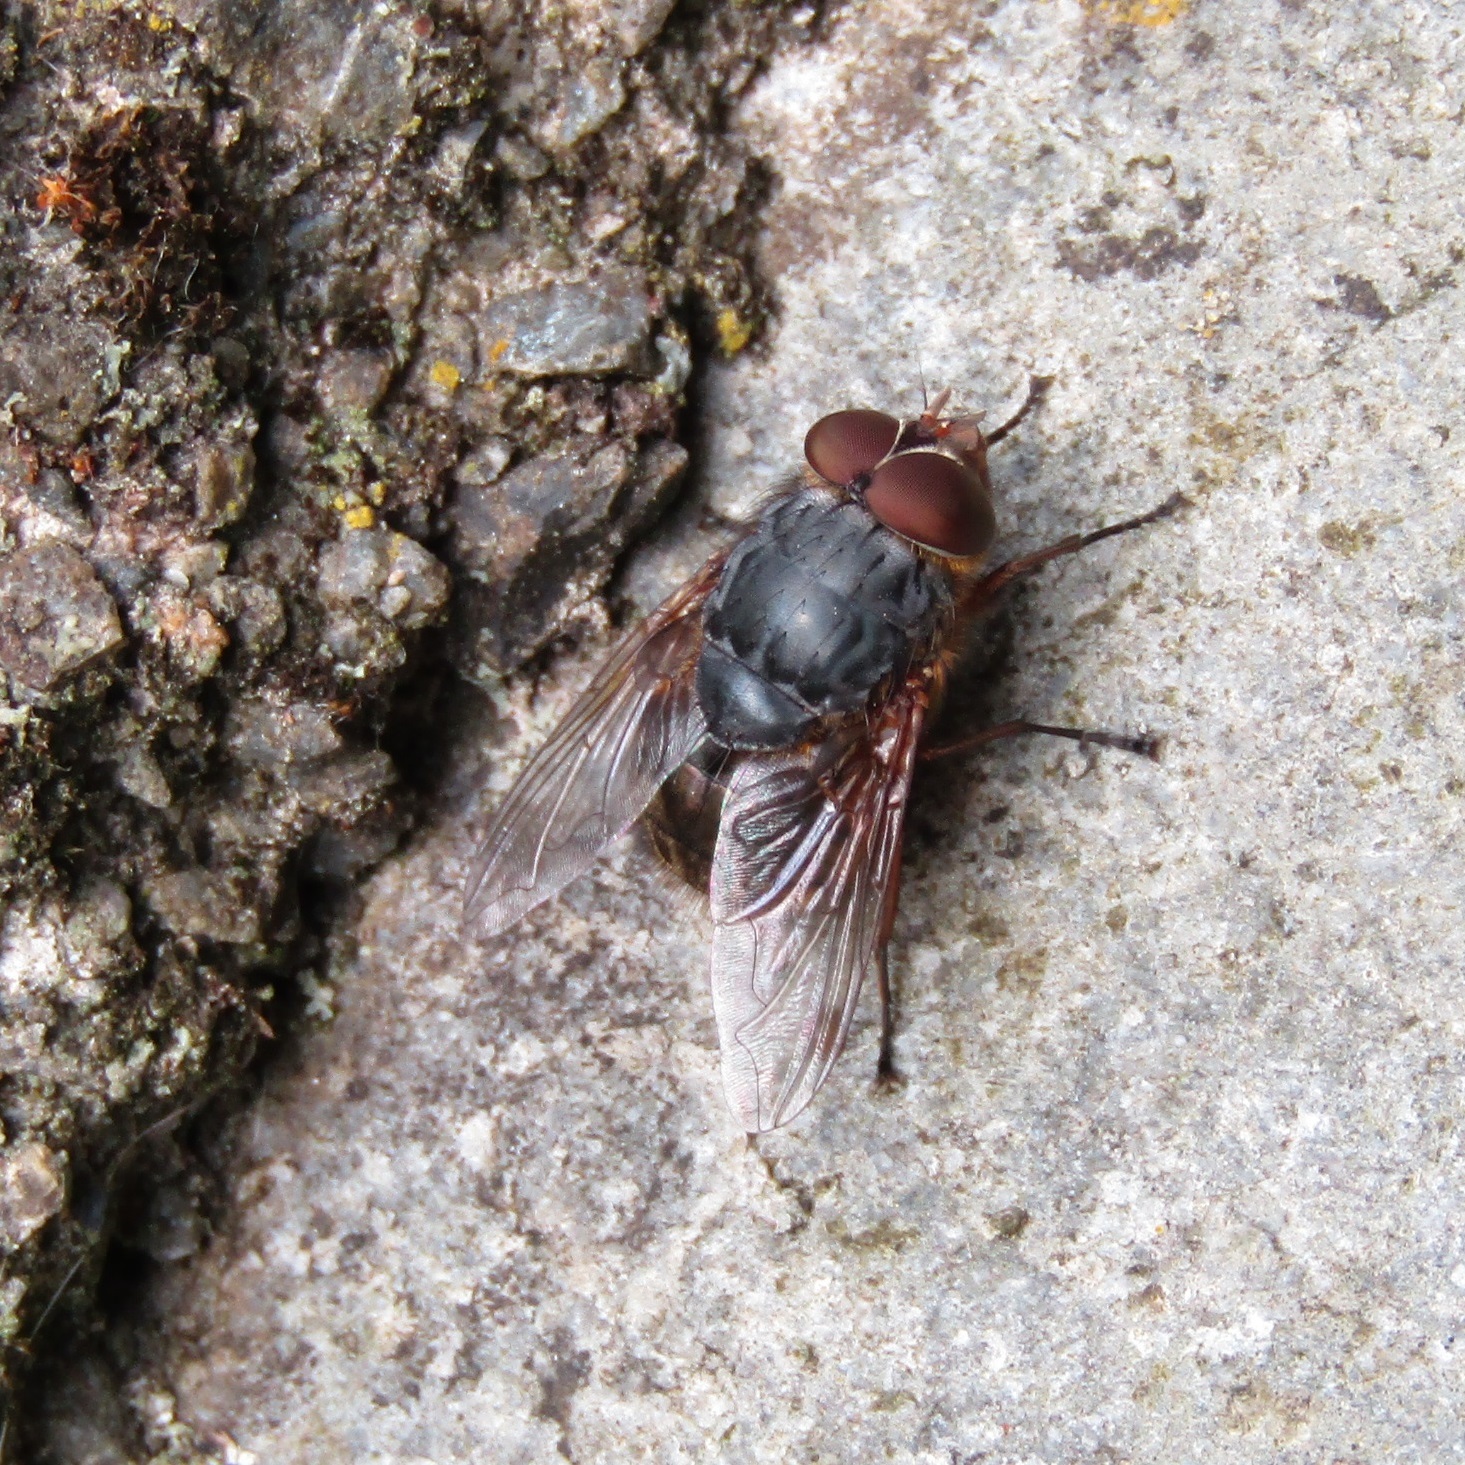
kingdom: Animalia
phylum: Arthropoda
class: Insecta
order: Diptera
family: Calliphoridae
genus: Calliphora
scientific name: Calliphora stygia
